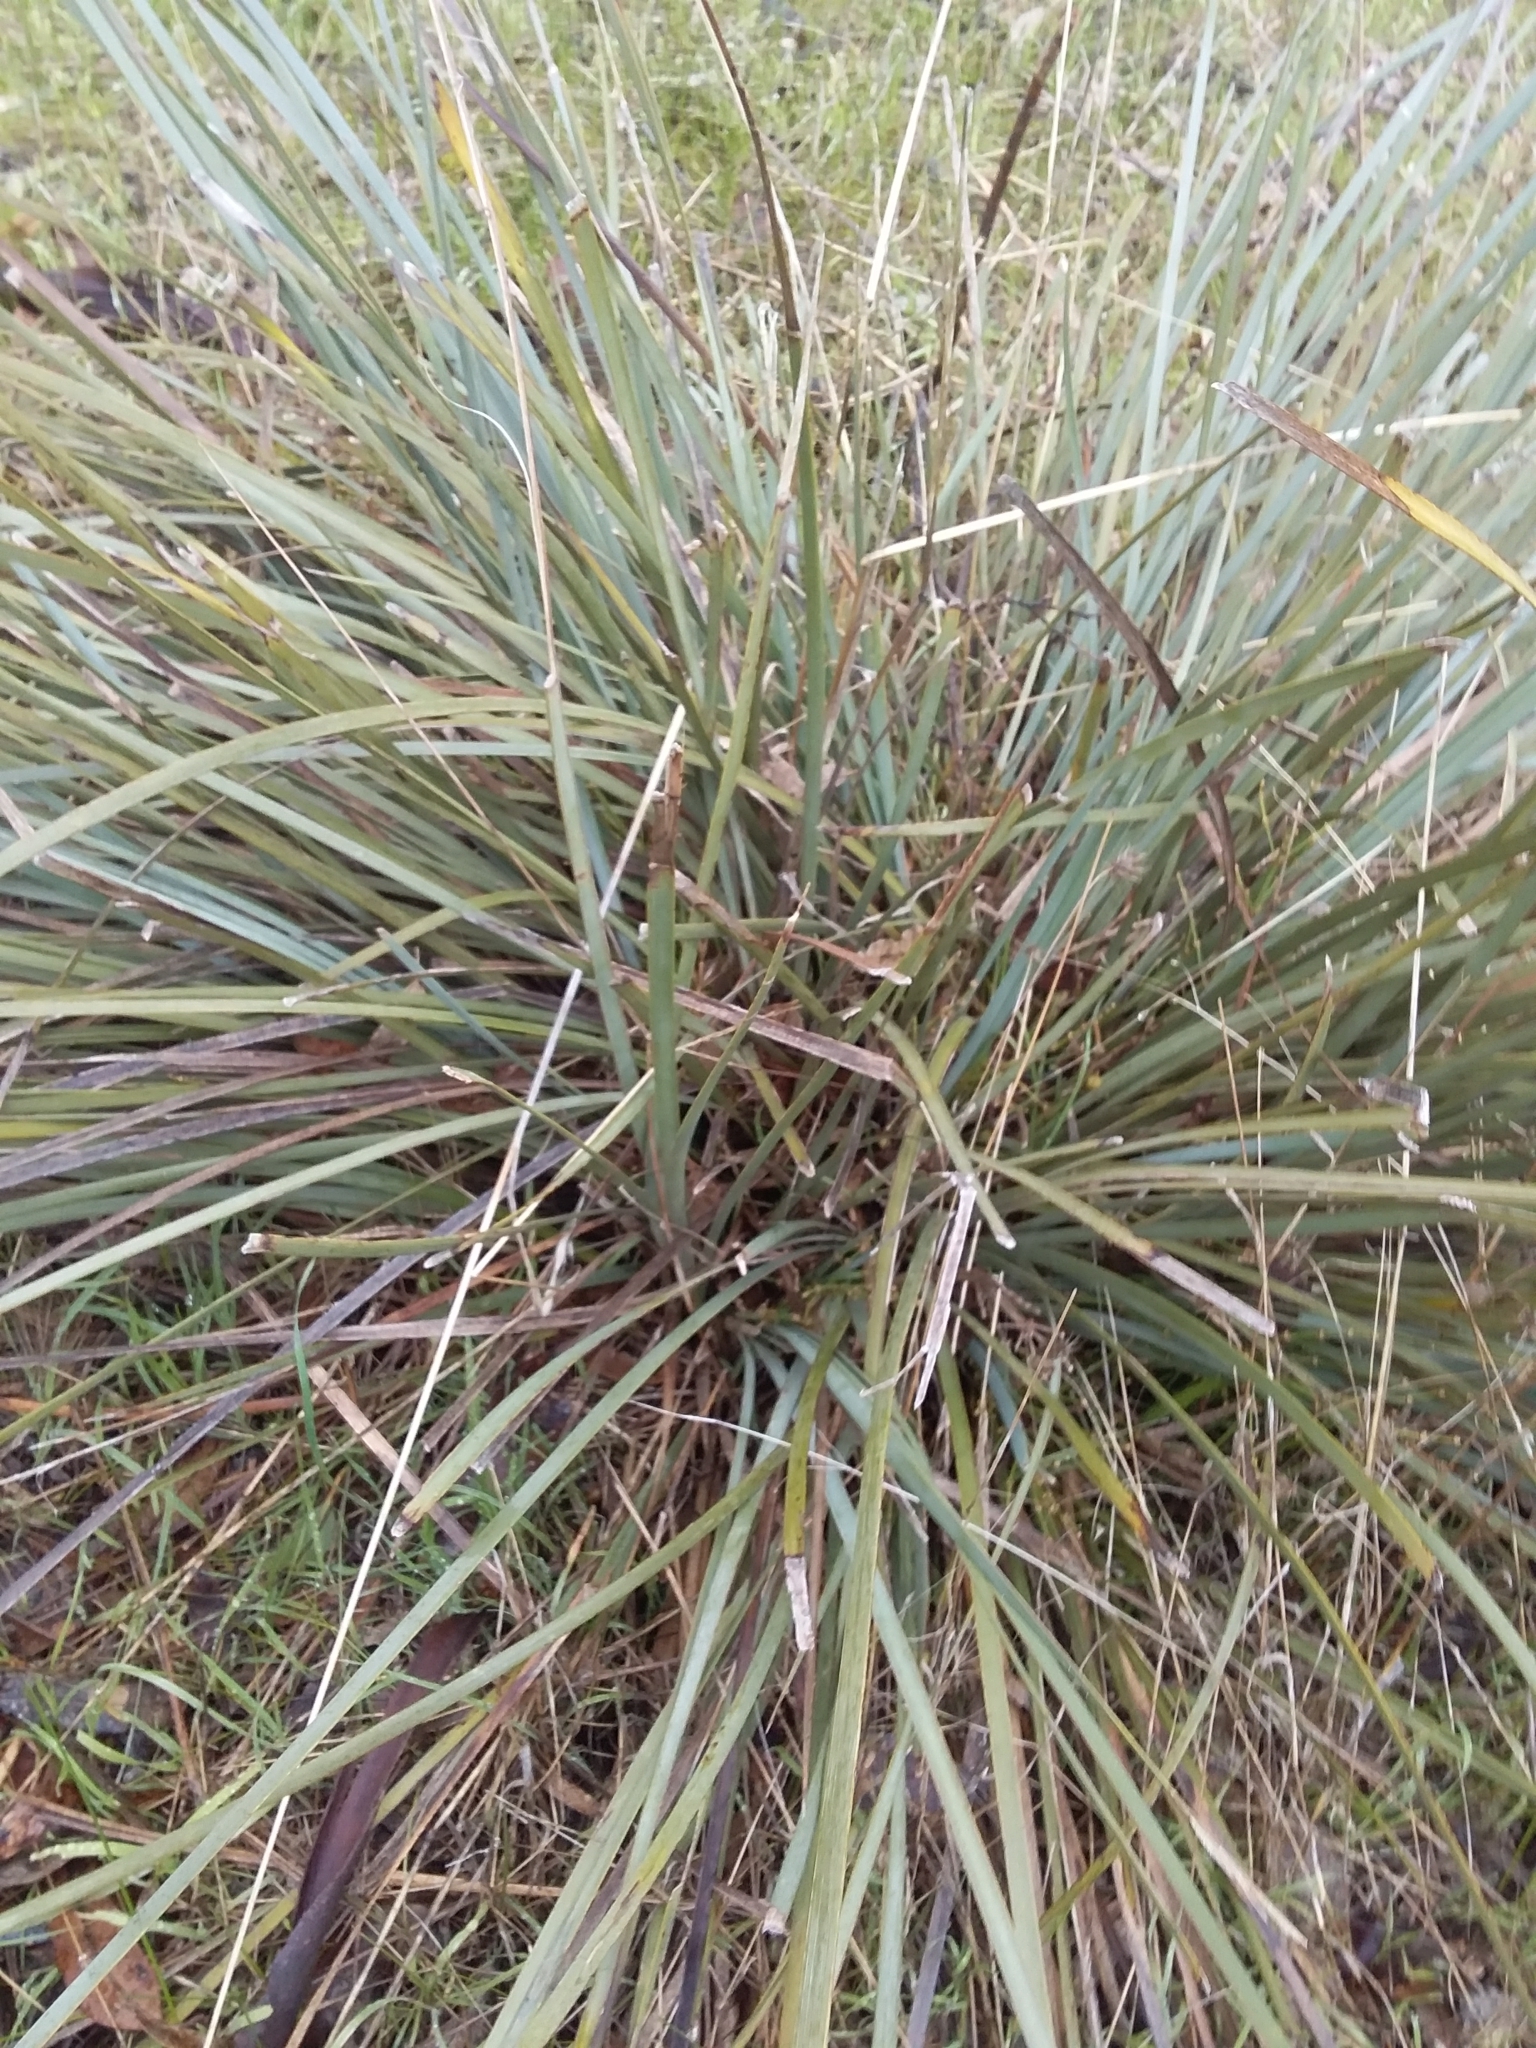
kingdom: Plantae
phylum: Tracheophyta
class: Liliopsida
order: Asparagales
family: Asparagaceae
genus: Lomandra
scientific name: Lomandra multiflora
